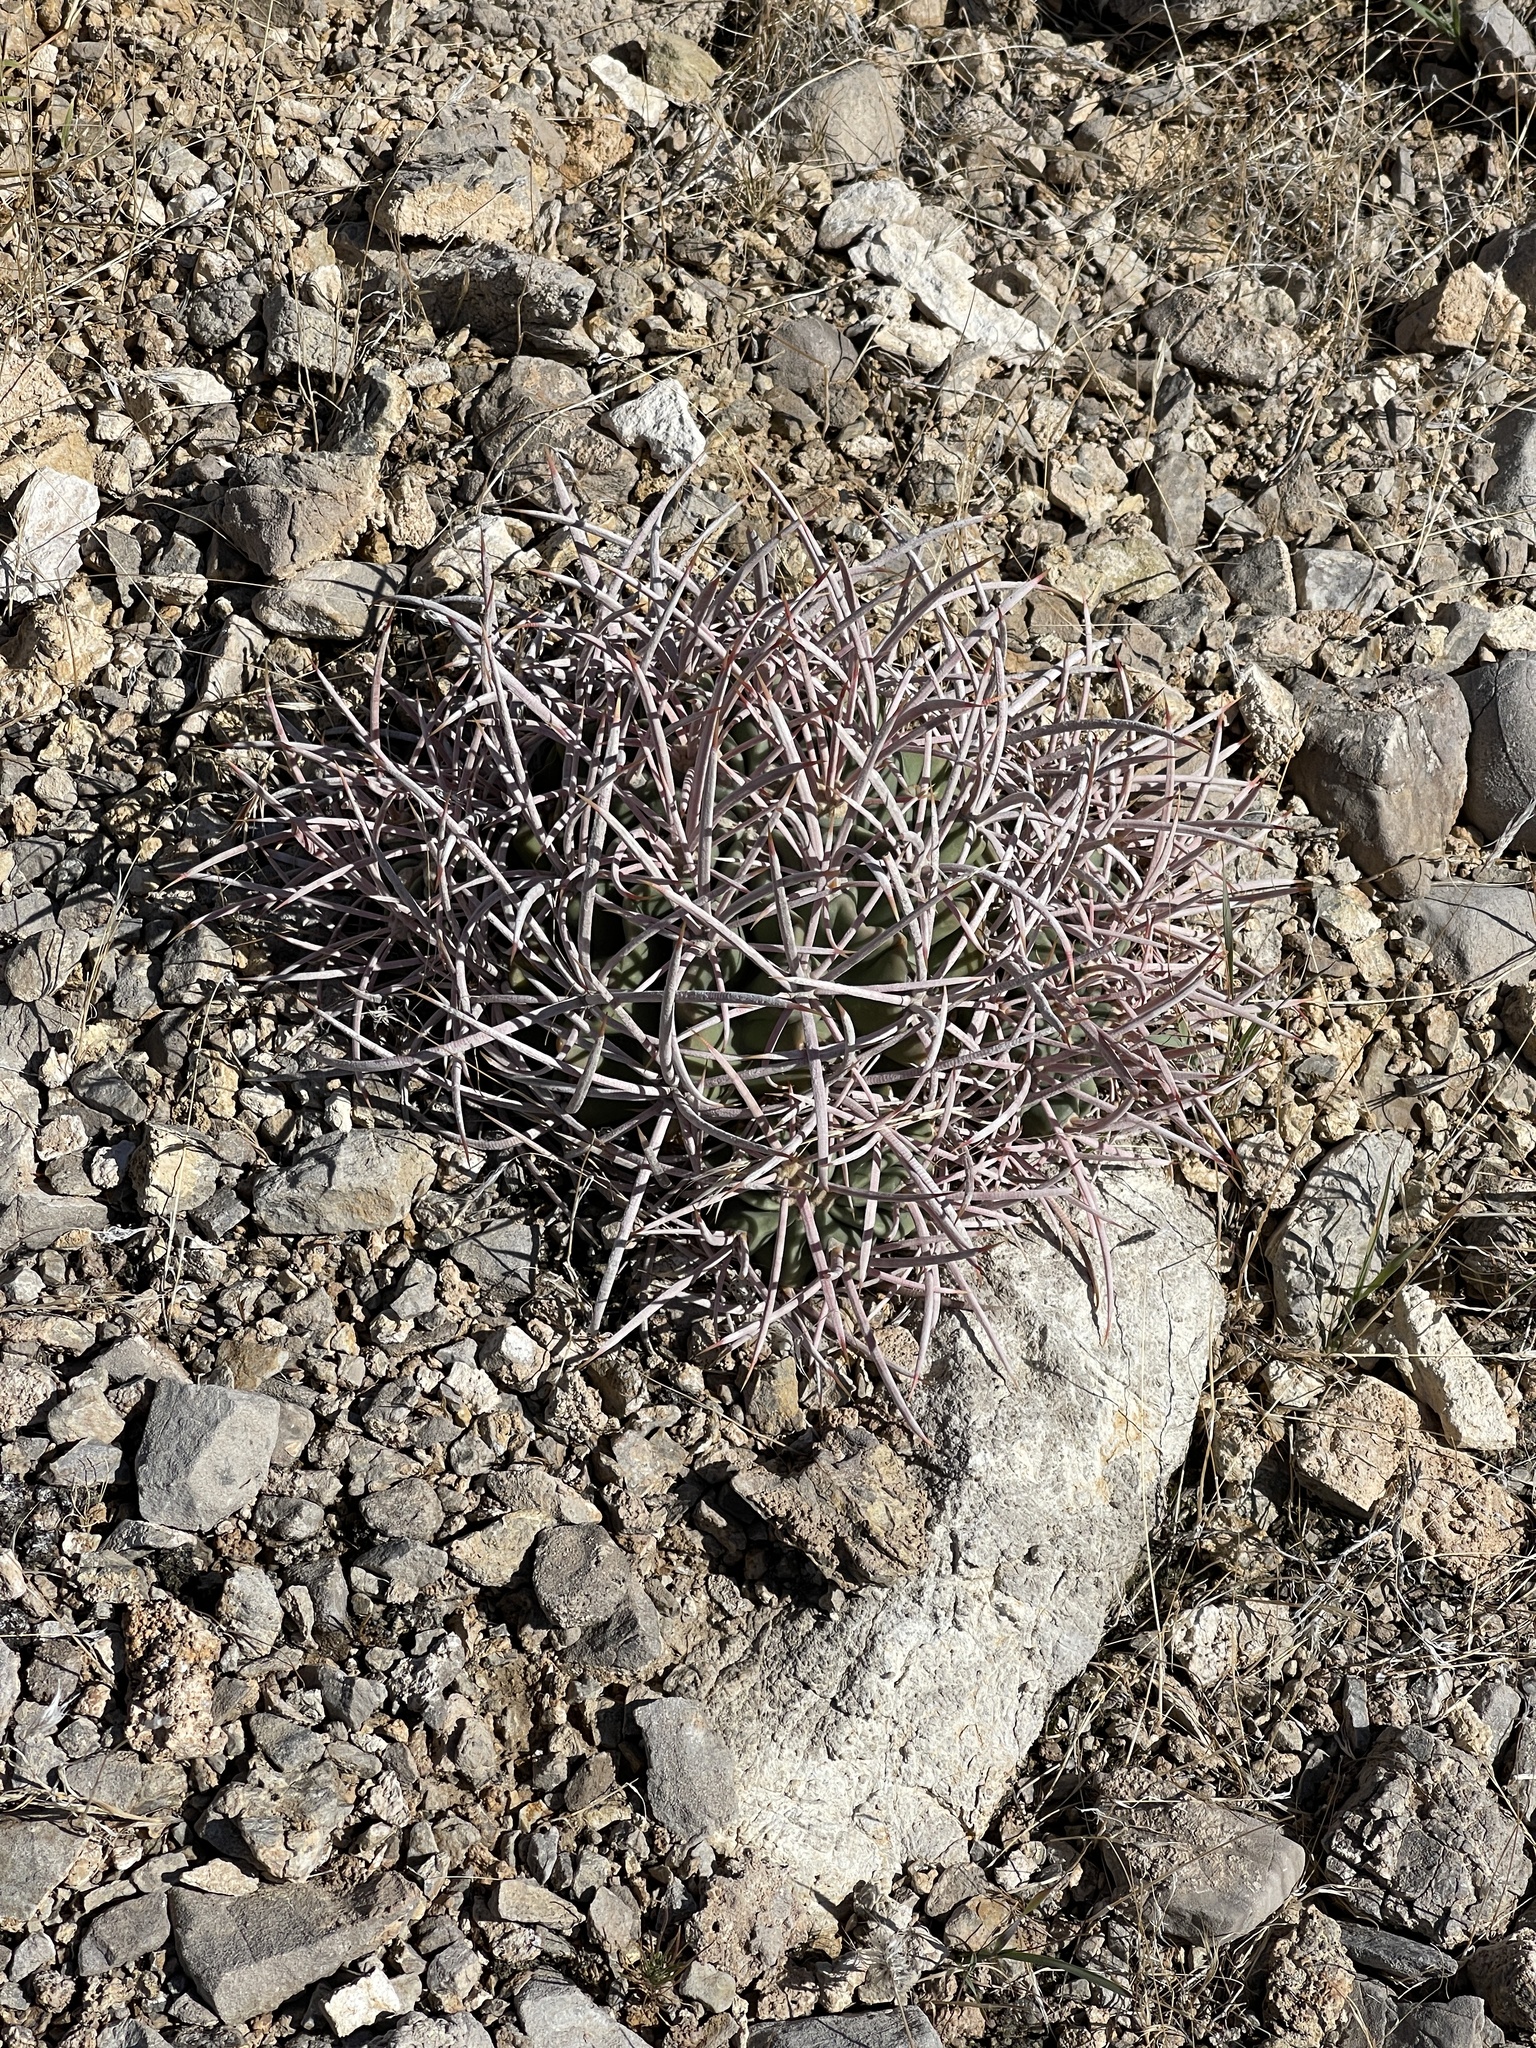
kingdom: Plantae
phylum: Tracheophyta
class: Magnoliopsida
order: Caryophyllales
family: Cactaceae
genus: Echinocactus
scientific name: Echinocactus polycephalus
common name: Cottontop cactus
